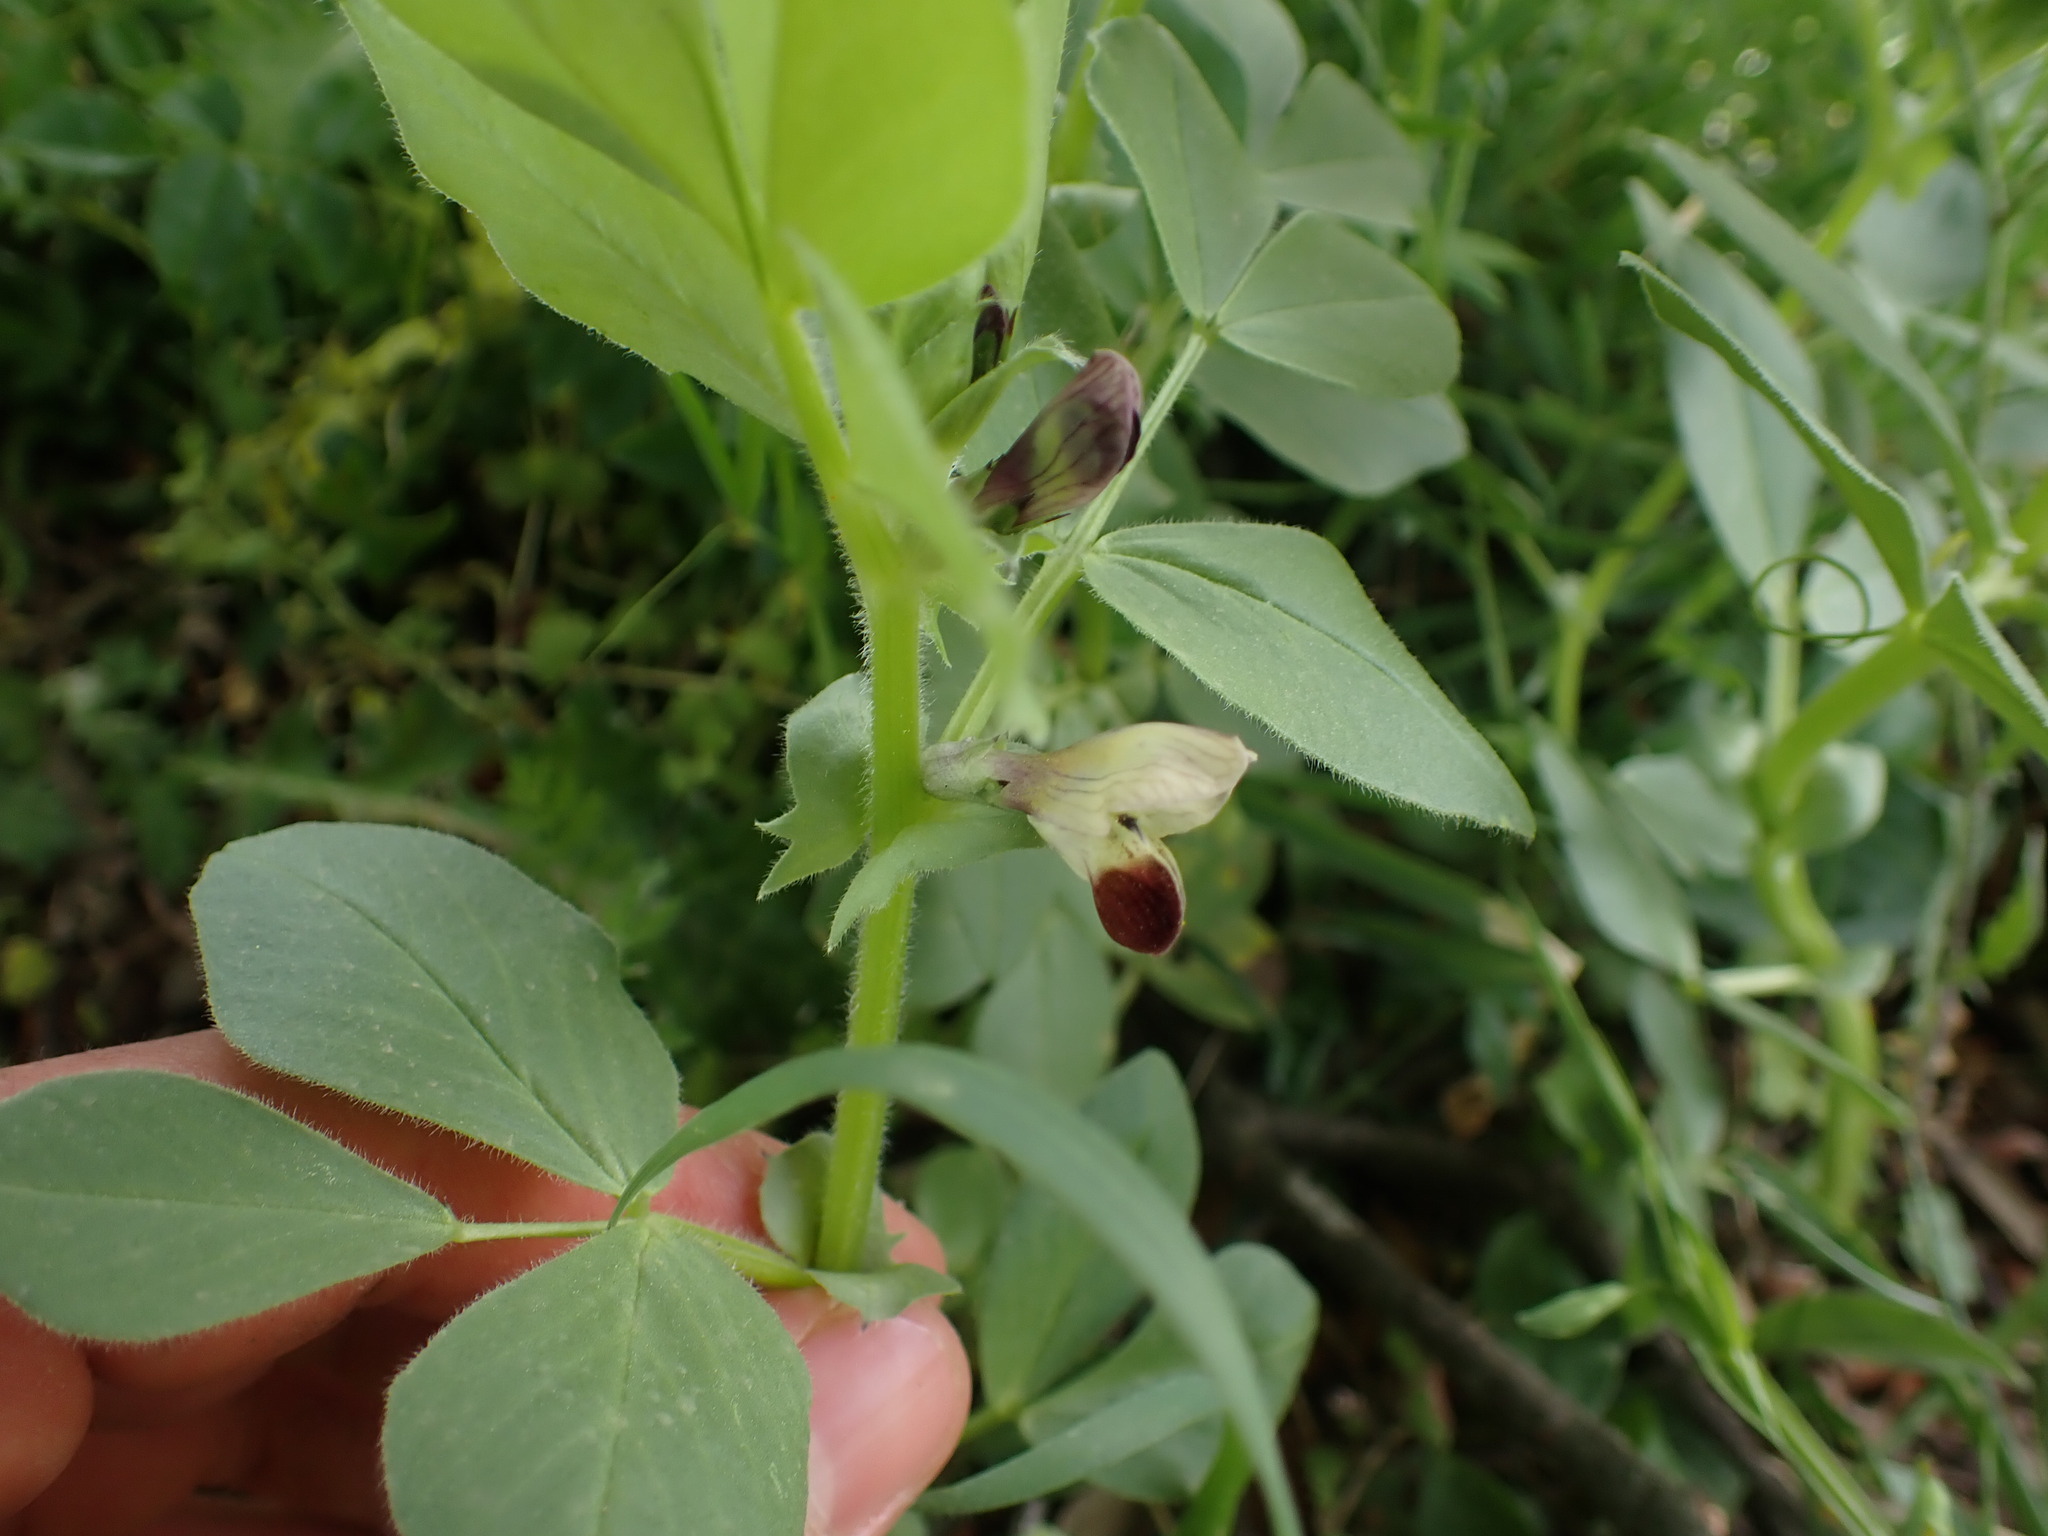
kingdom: Plantae
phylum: Tracheophyta
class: Magnoliopsida
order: Fabales
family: Fabaceae
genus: Vicia
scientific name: Vicia faba
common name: Broad bean
